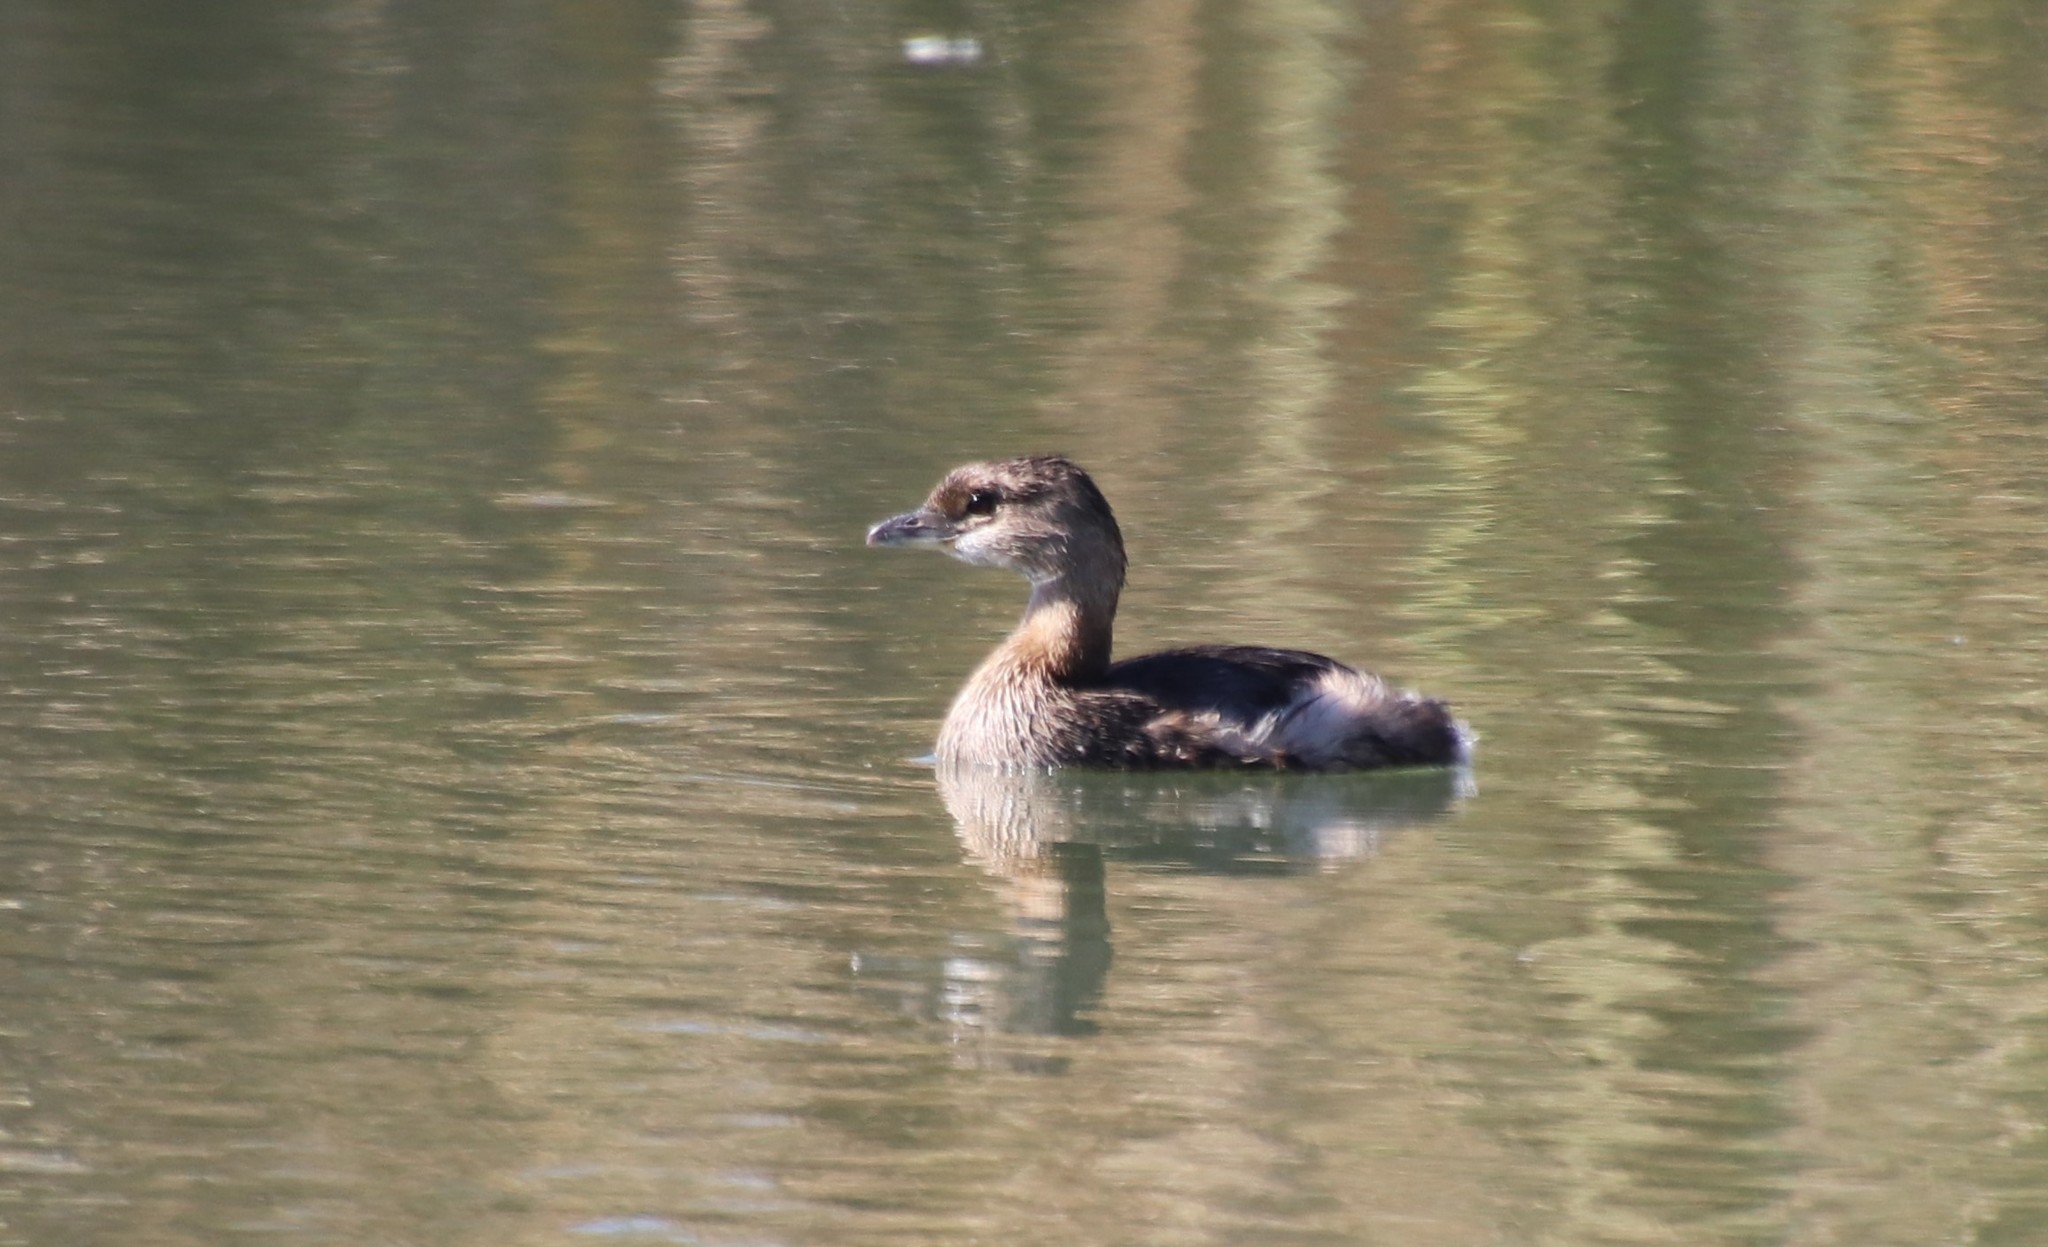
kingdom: Animalia
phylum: Chordata
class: Aves
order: Podicipediformes
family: Podicipedidae
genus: Podilymbus
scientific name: Podilymbus podiceps
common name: Pied-billed grebe
